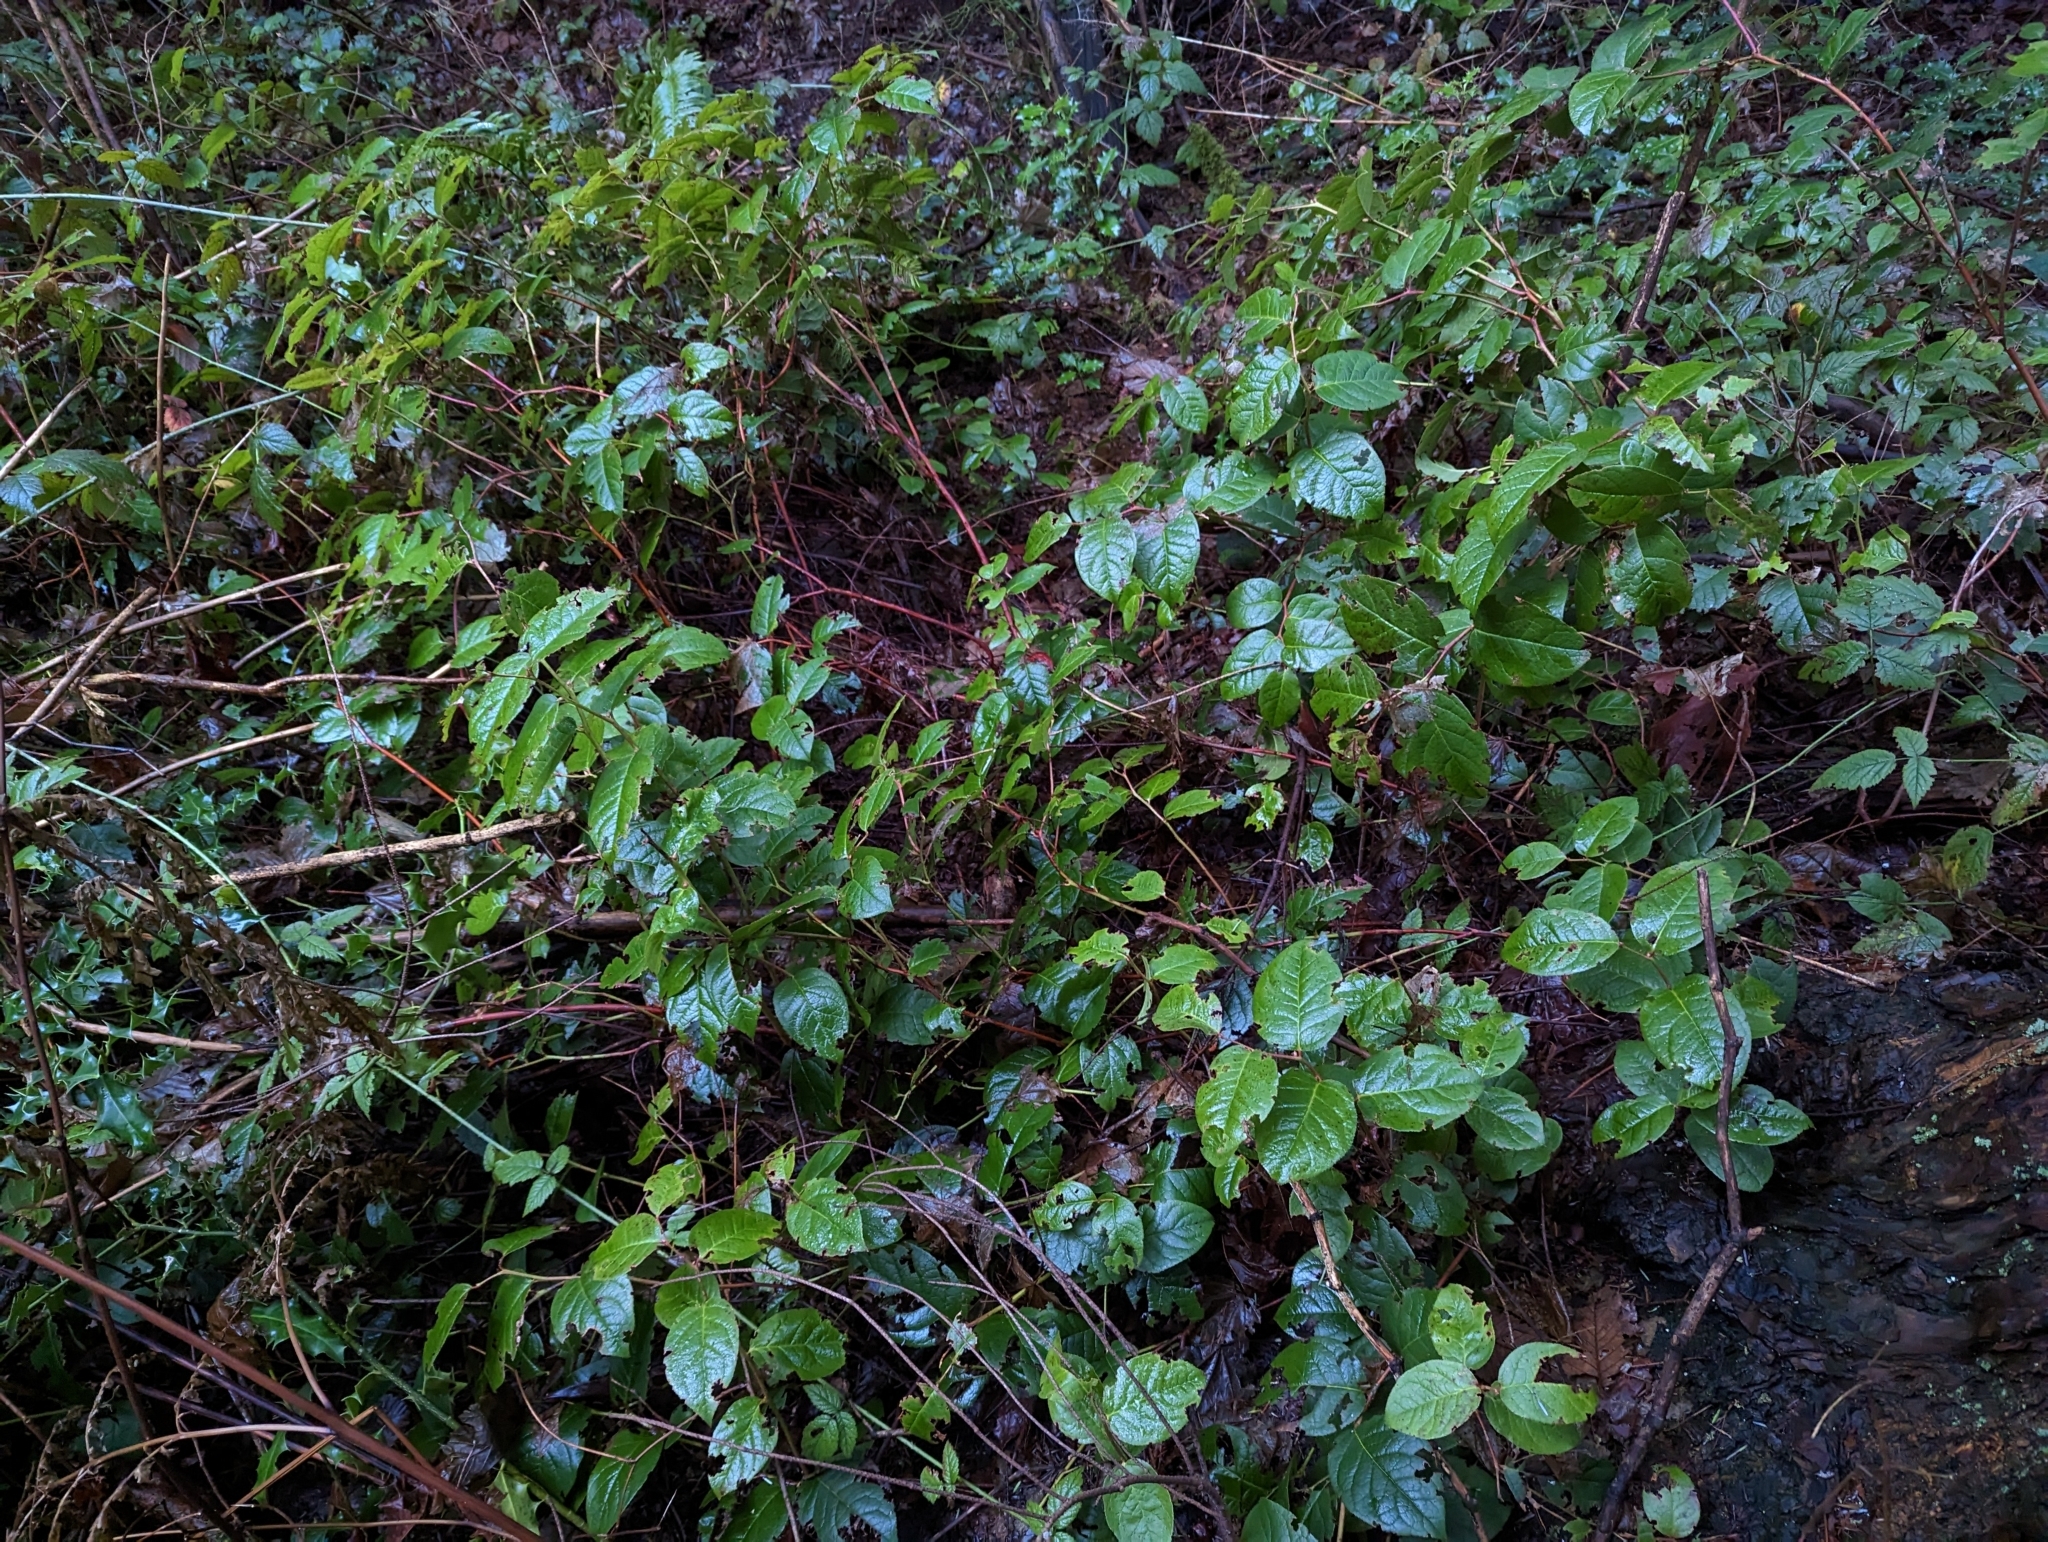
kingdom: Plantae
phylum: Tracheophyta
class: Magnoliopsida
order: Ericales
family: Ericaceae
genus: Gaultheria
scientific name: Gaultheria shallon
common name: Shallon
